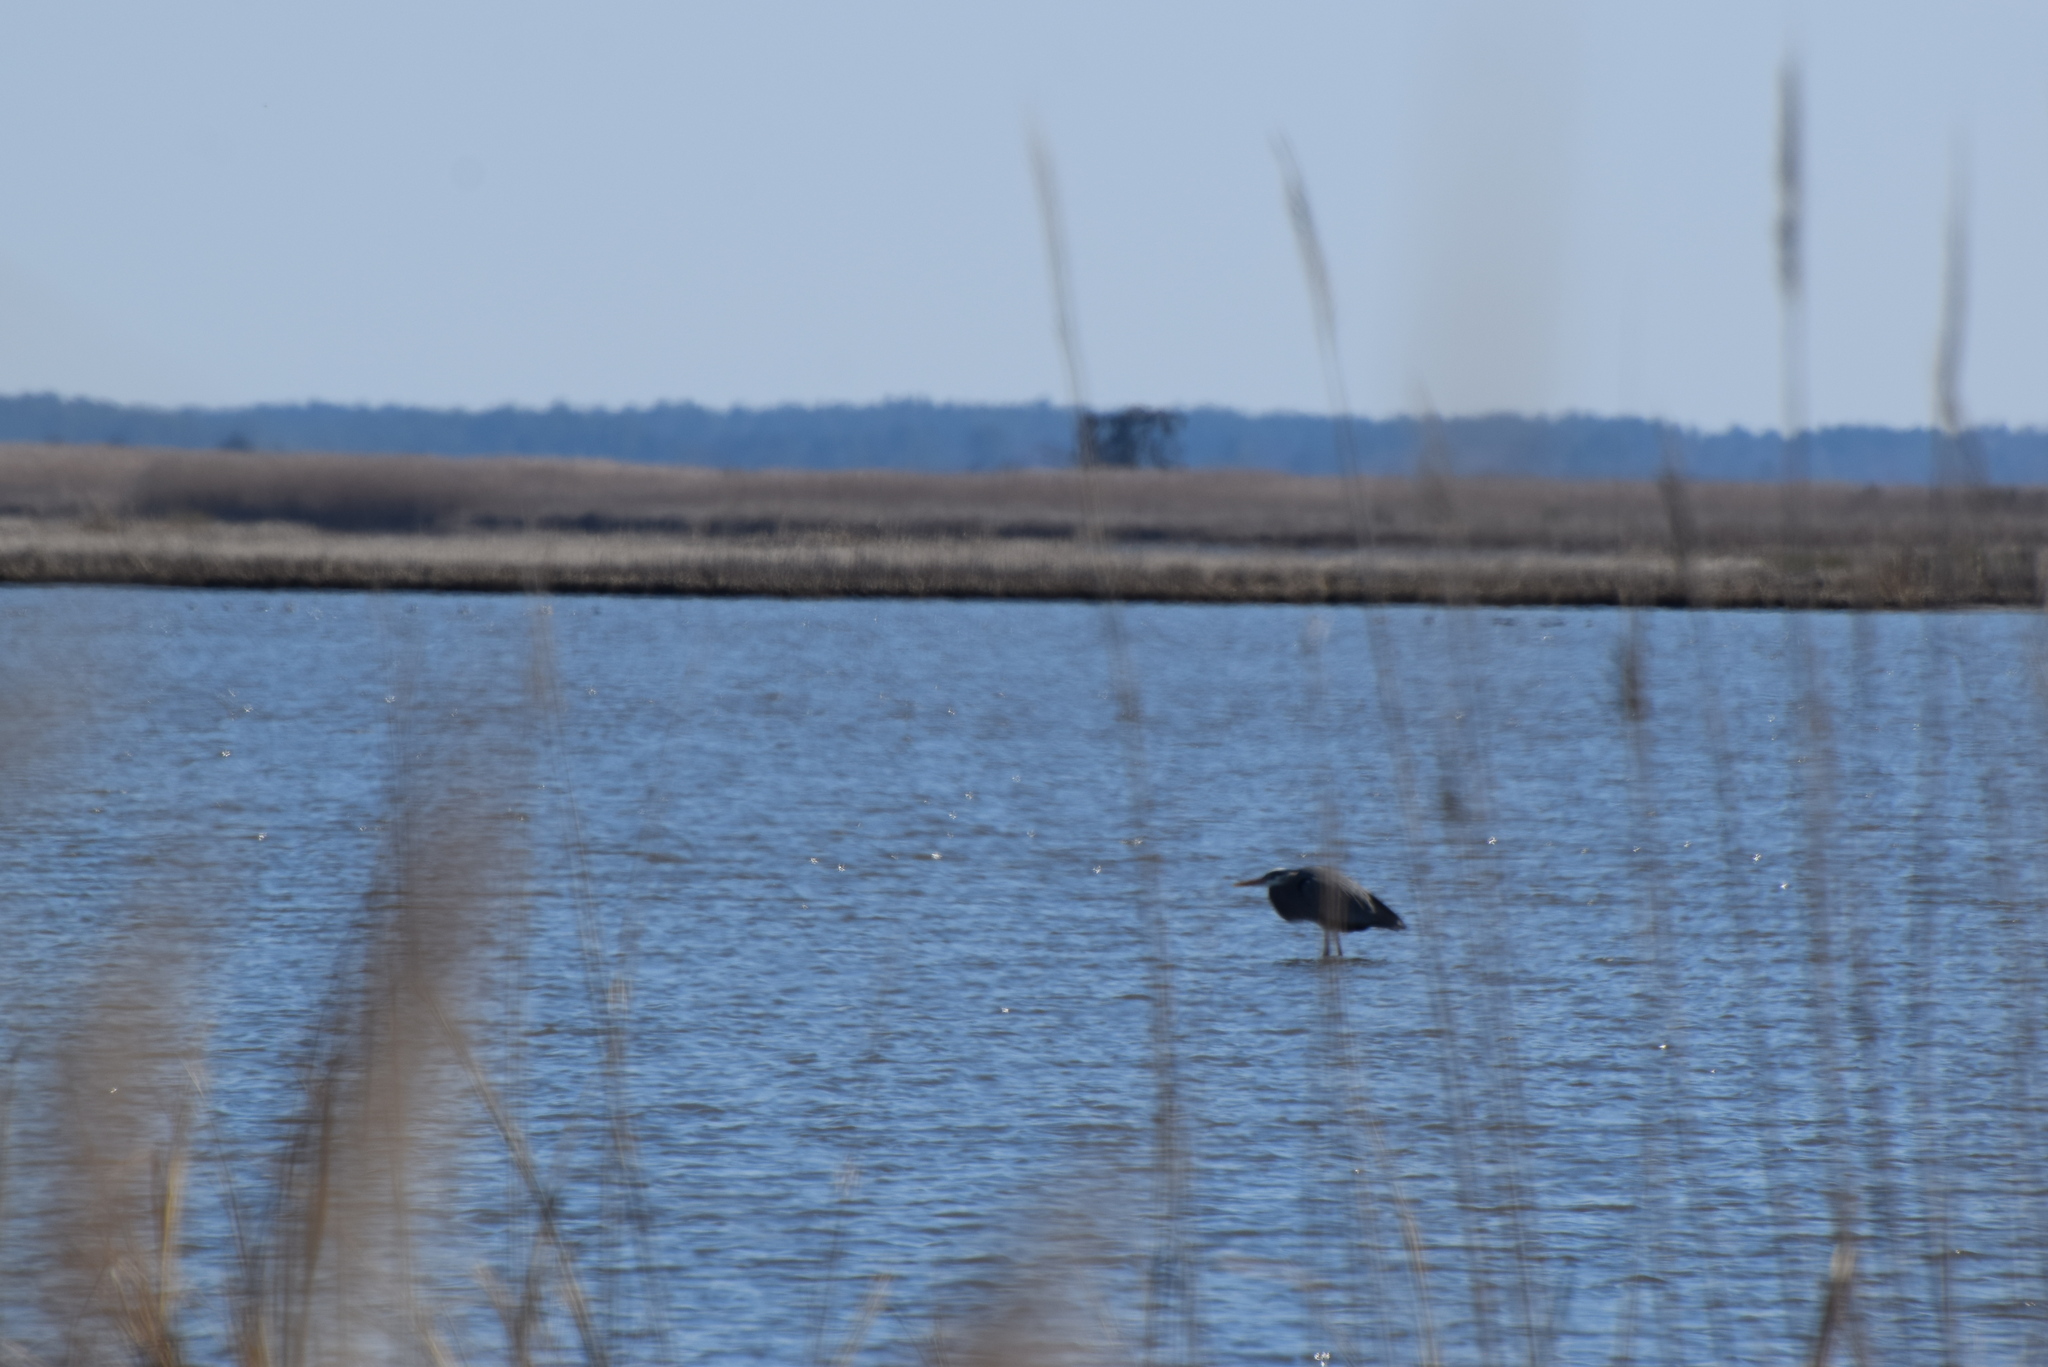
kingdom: Animalia
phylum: Chordata
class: Aves
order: Pelecaniformes
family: Ardeidae
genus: Ardea
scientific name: Ardea herodias
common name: Great blue heron
